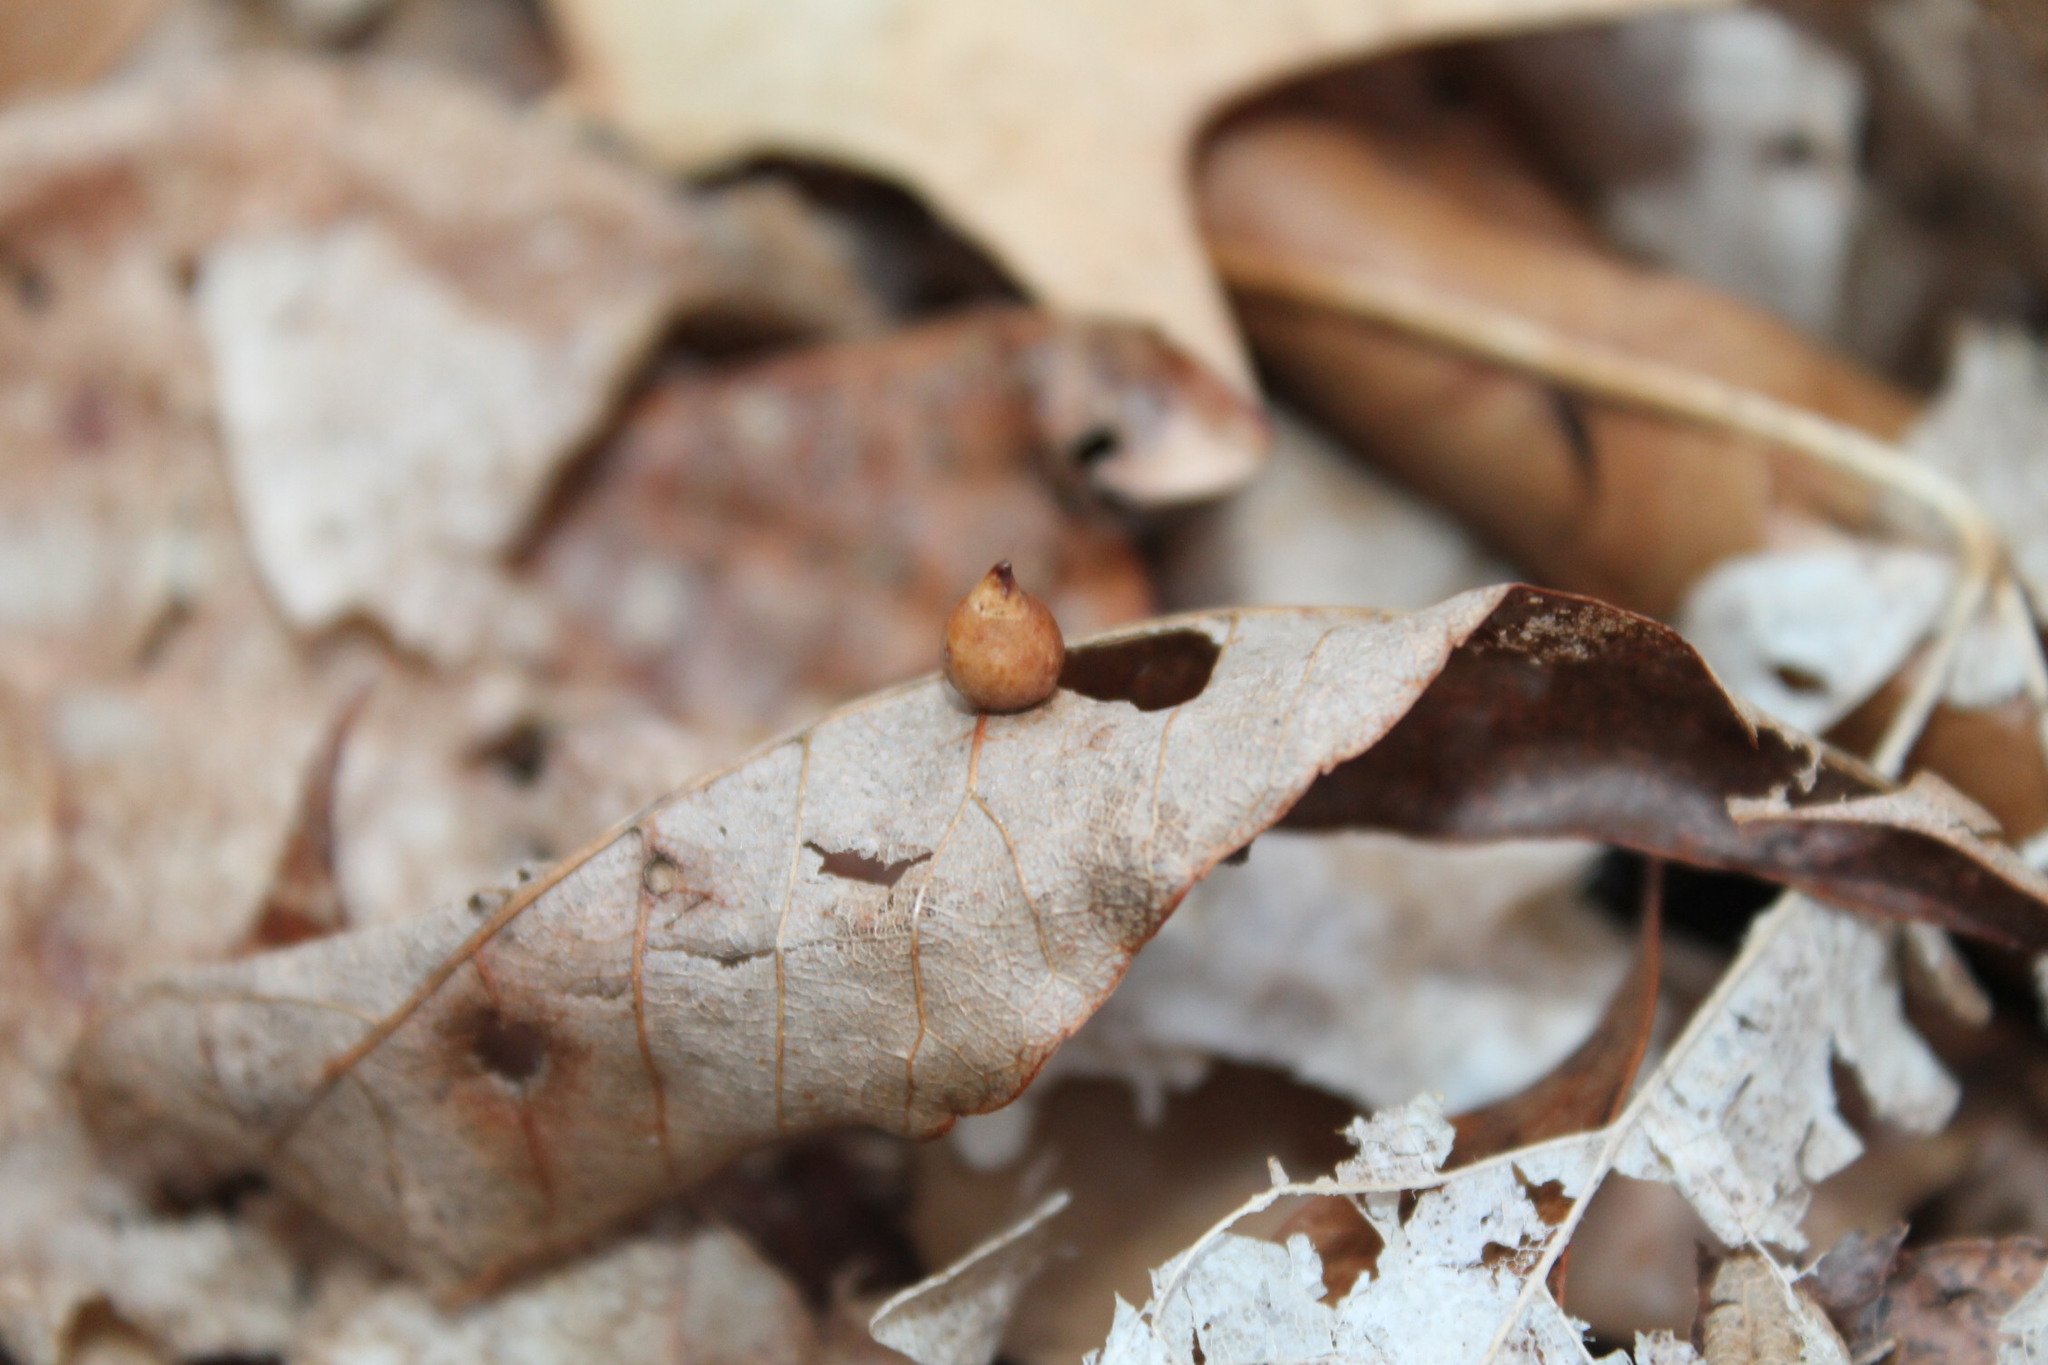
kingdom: Animalia
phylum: Arthropoda
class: Insecta
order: Diptera
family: Cecidomyiidae
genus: Caryomyia
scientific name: Caryomyia caryaecola
